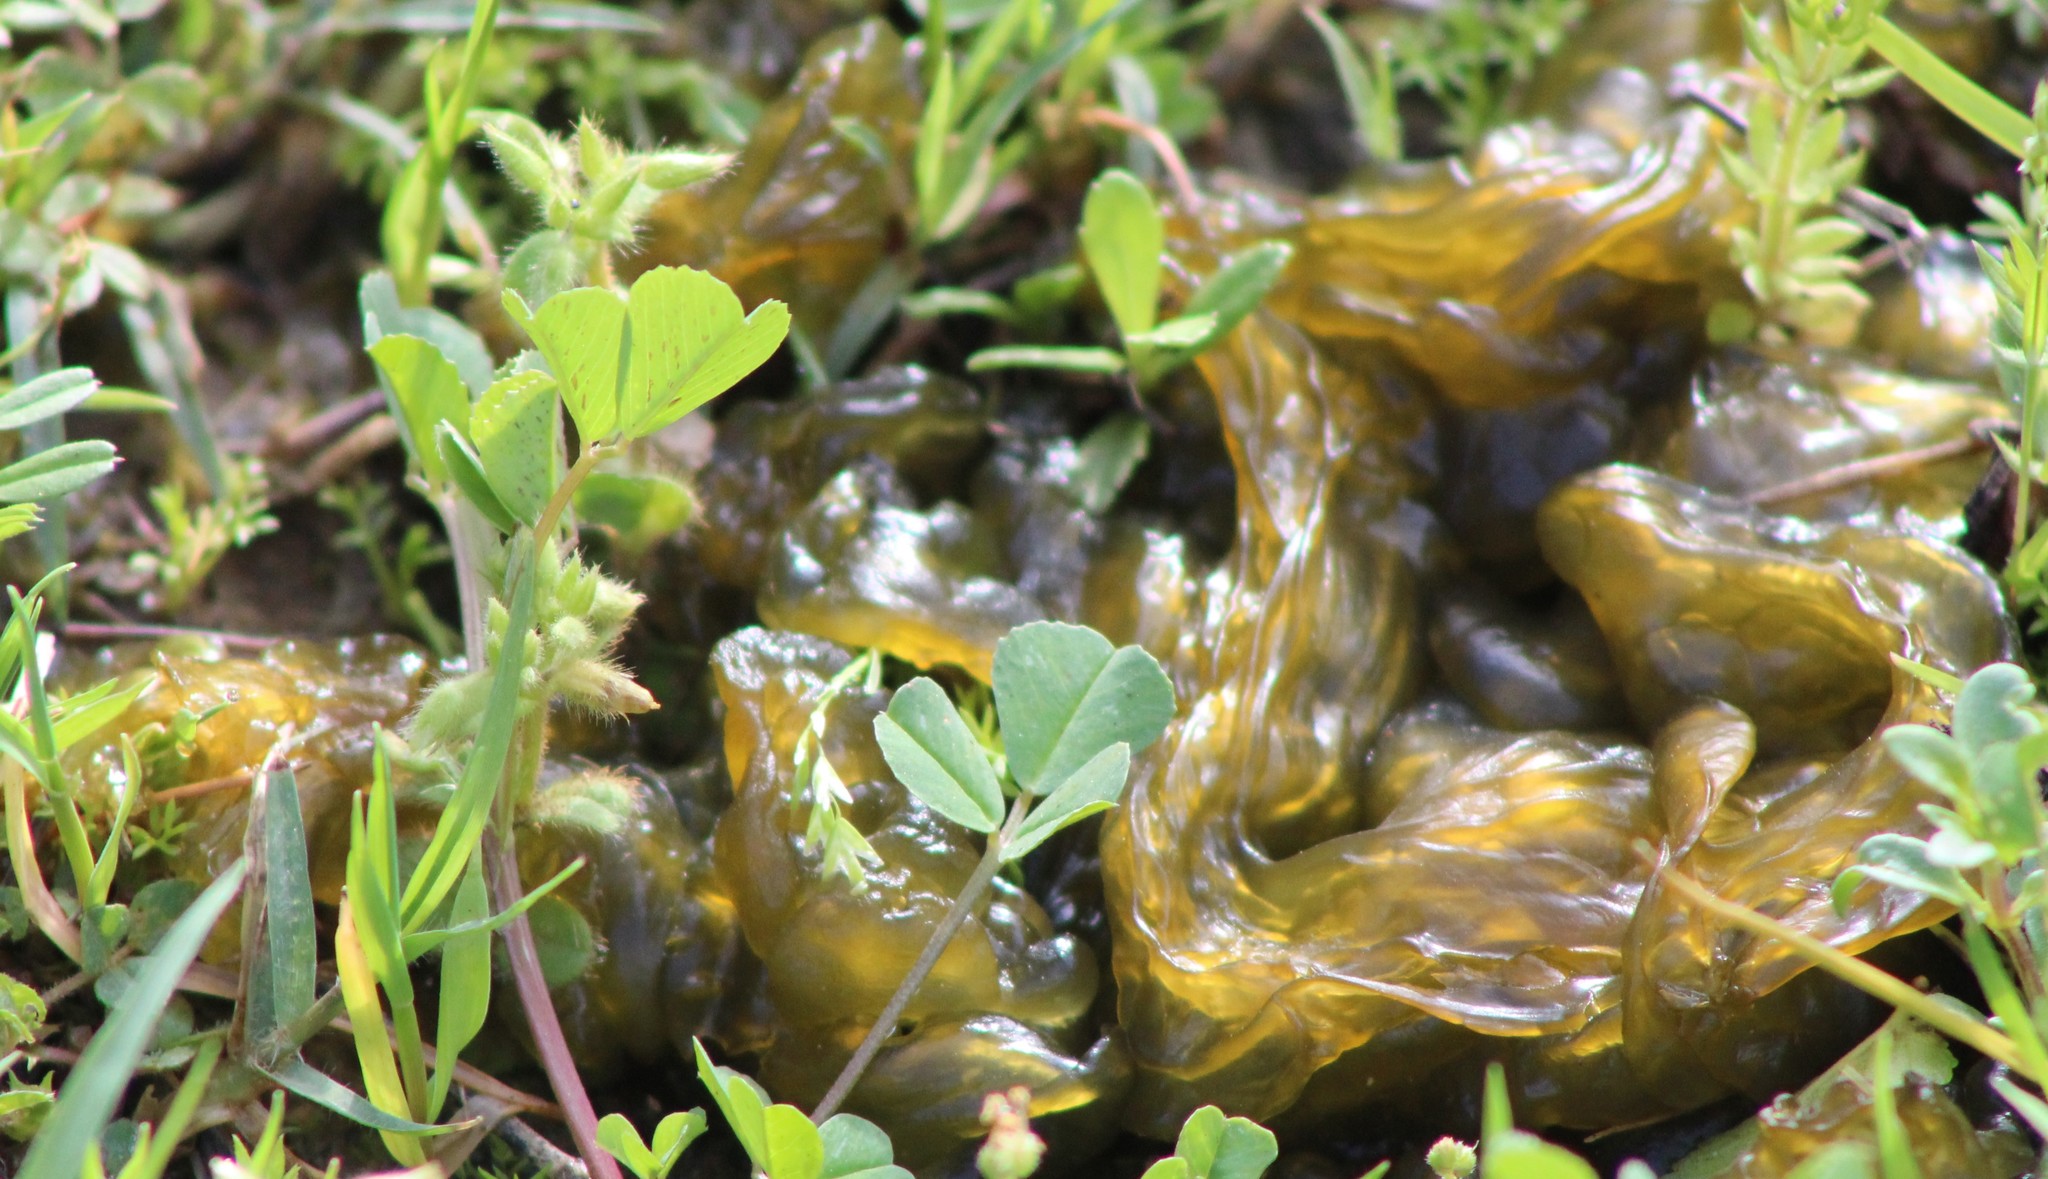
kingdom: Bacteria
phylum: Cyanobacteria
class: Cyanobacteriia
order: Cyanobacteriales
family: Nostocaceae
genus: Nostoc
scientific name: Nostoc commune
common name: Star jelly
